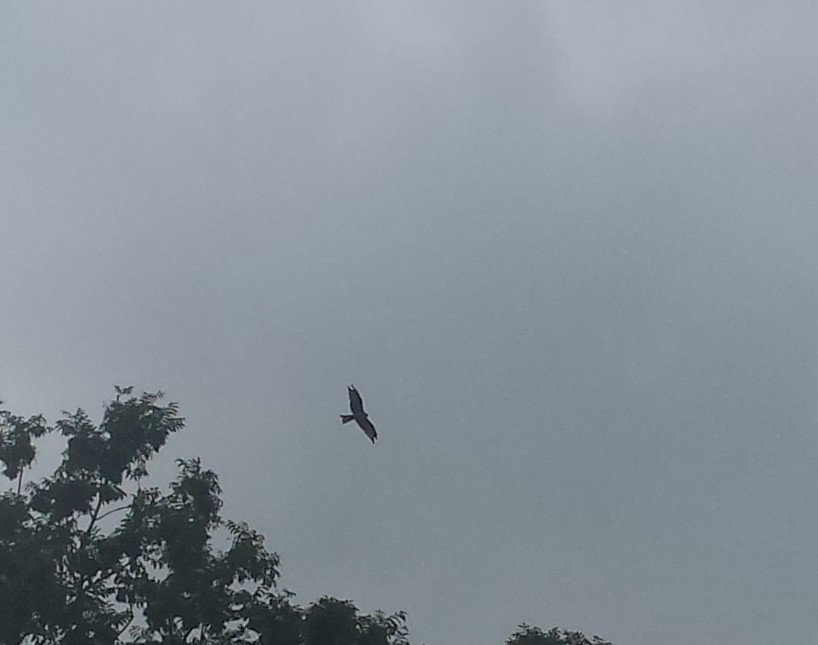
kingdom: Animalia
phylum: Chordata
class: Aves
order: Accipitriformes
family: Accipitridae
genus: Milvus
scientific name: Milvus milvus
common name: Red kite
